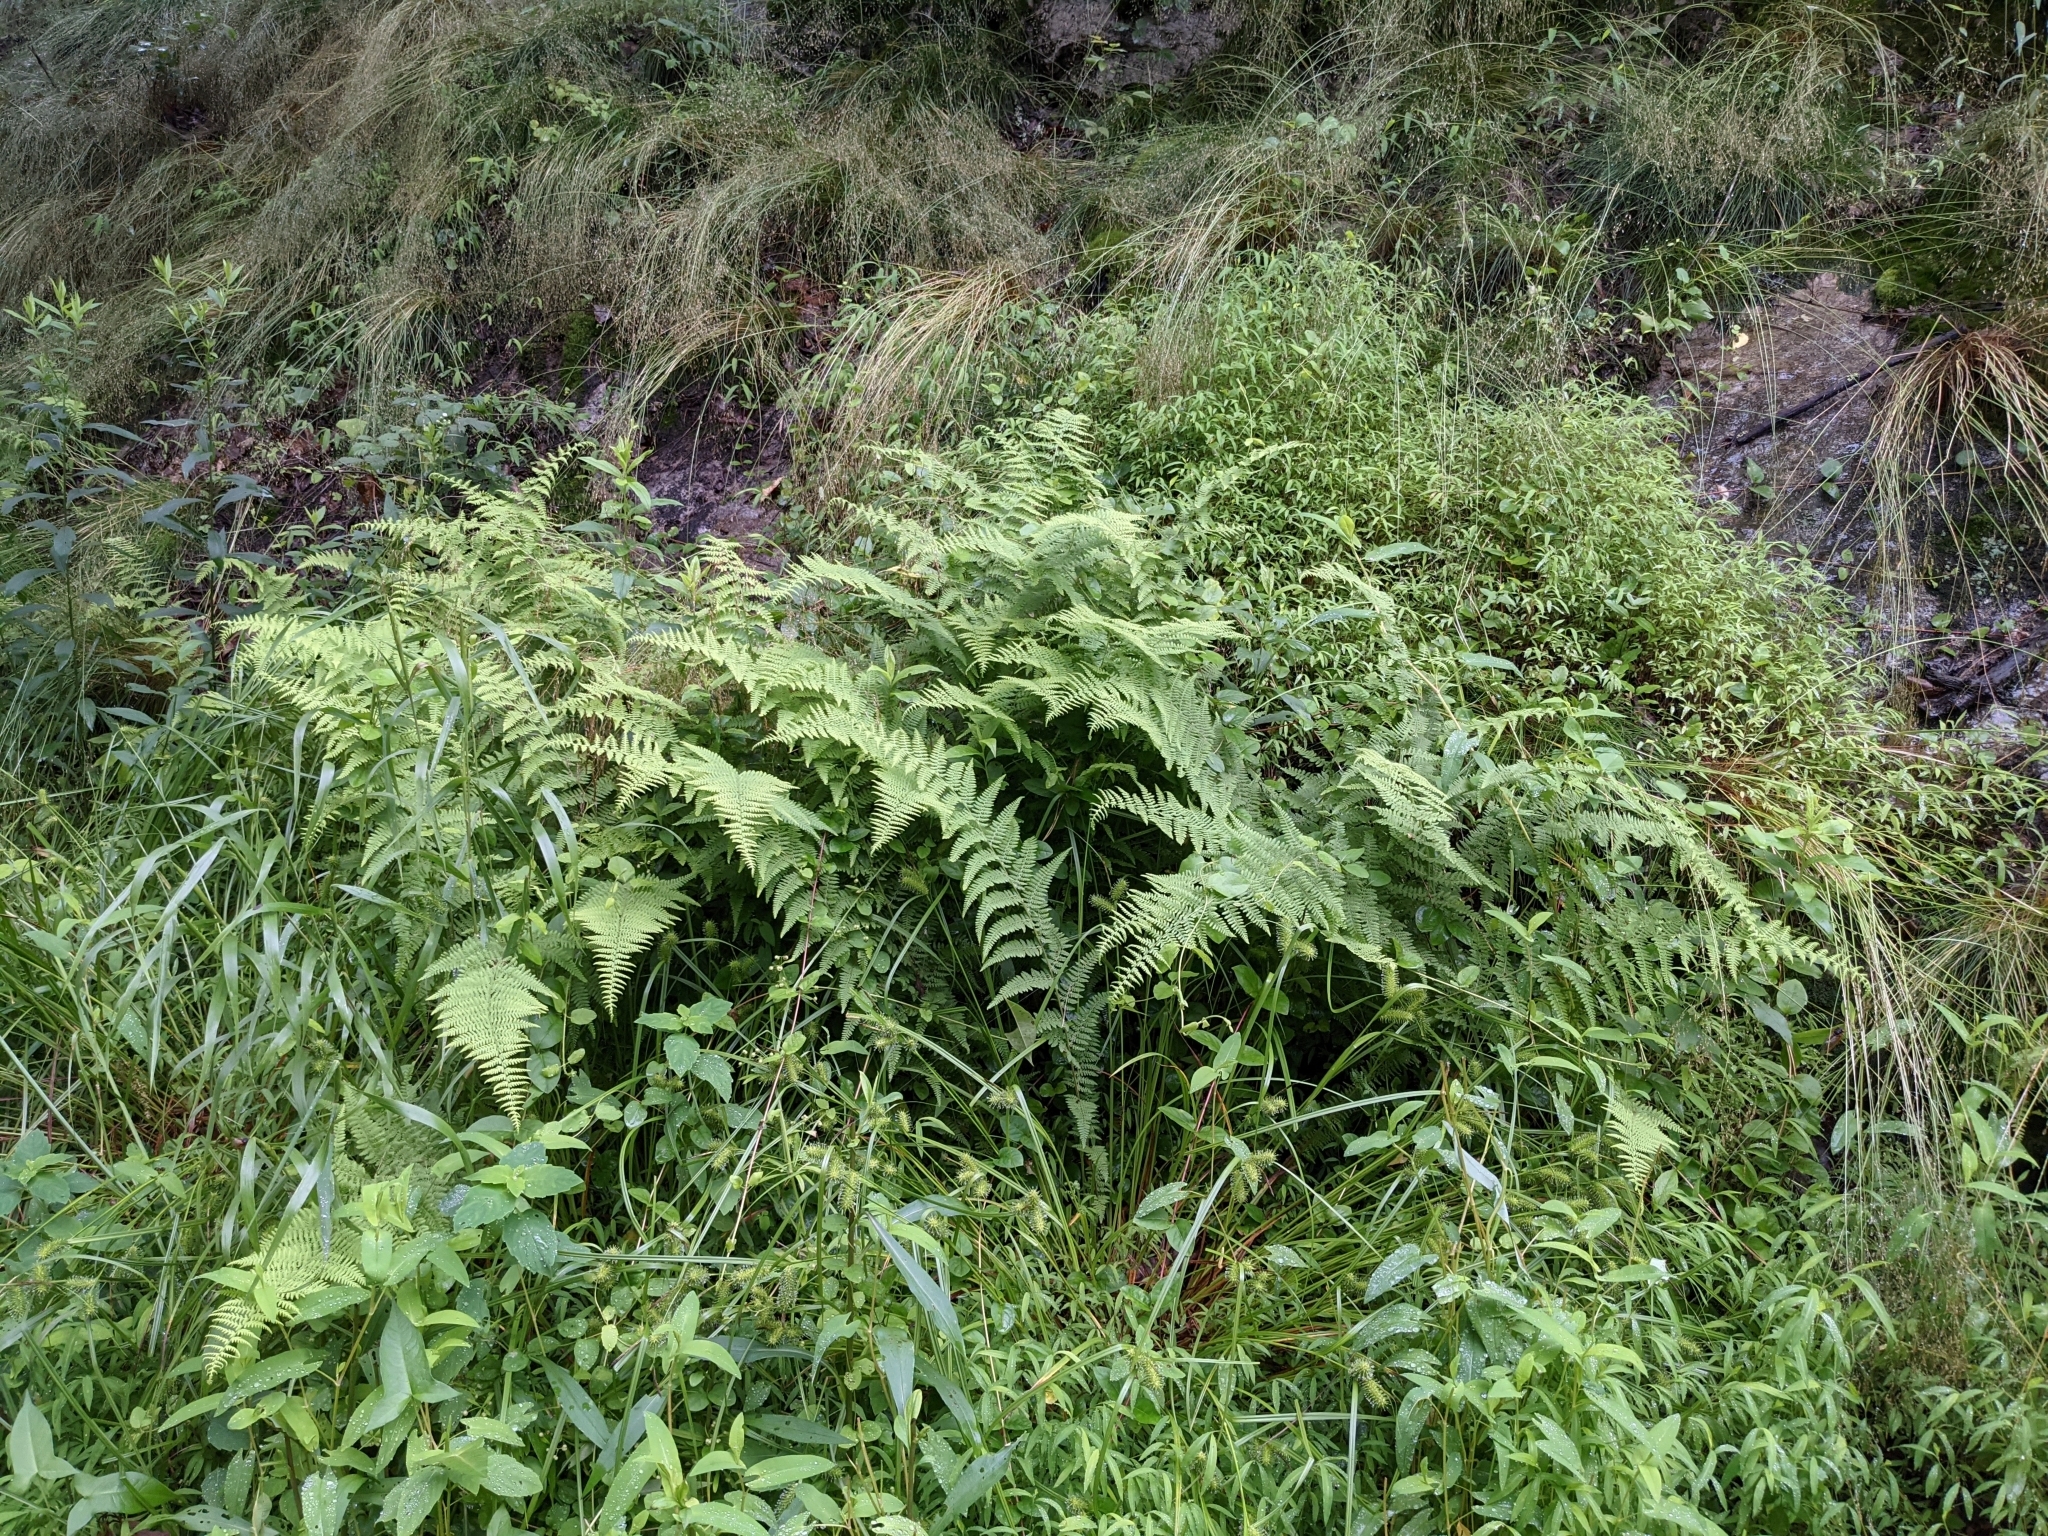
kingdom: Plantae
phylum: Tracheophyta
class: Polypodiopsida
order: Polypodiales
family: Dennstaedtiaceae
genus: Sitobolium
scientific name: Sitobolium punctilobum
